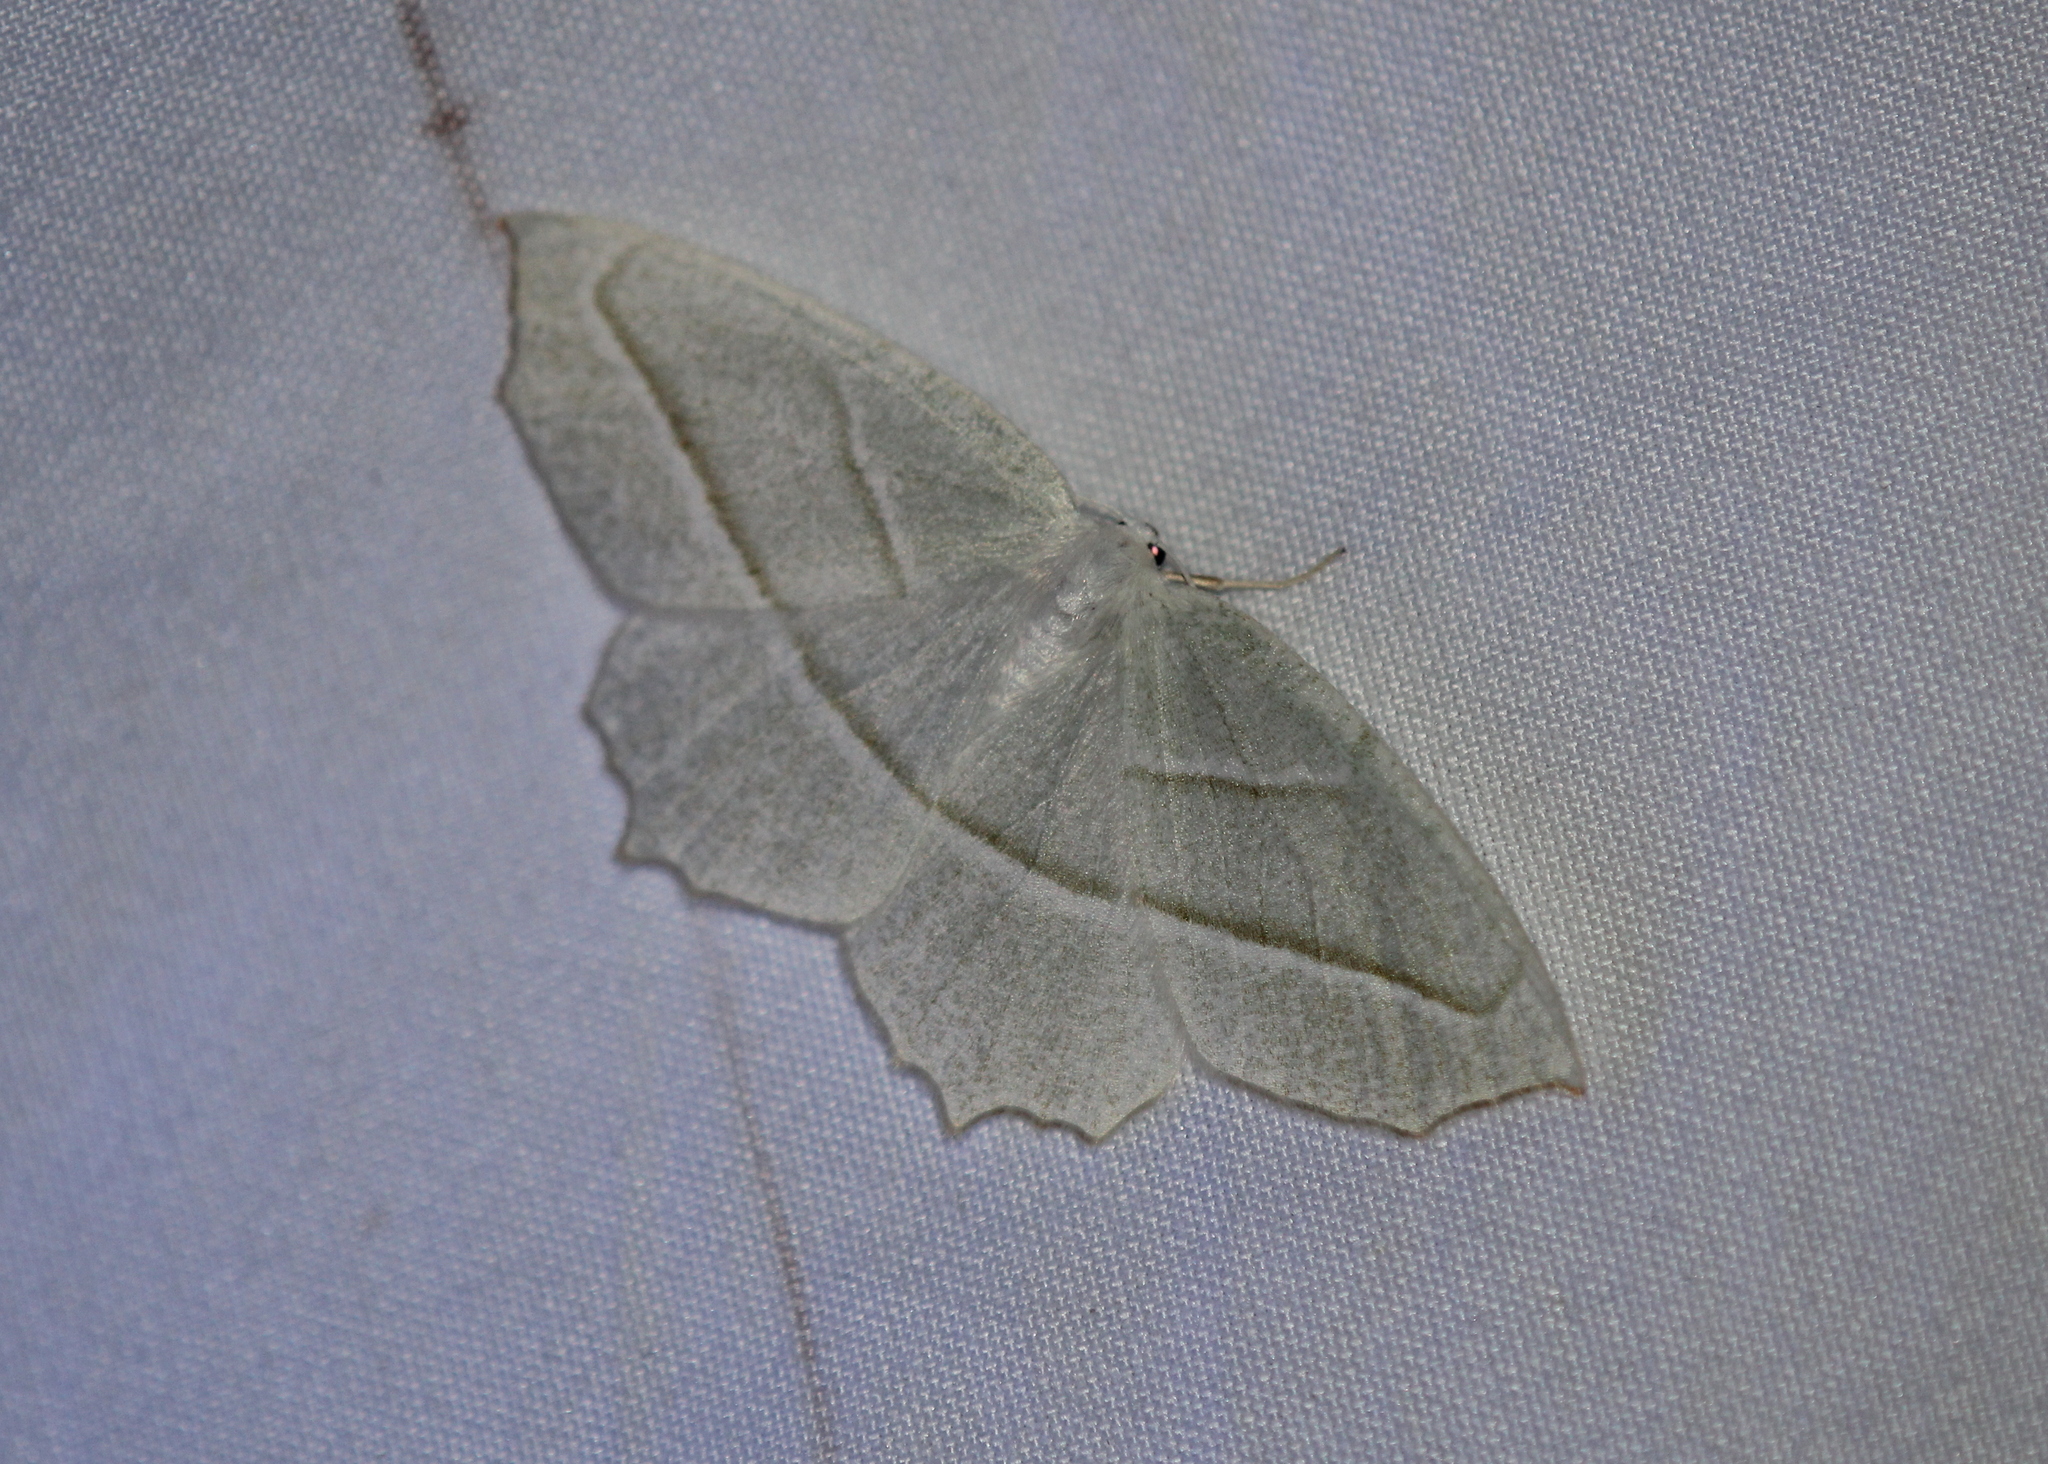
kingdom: Animalia
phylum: Arthropoda
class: Insecta
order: Lepidoptera
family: Geometridae
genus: Campaea
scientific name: Campaea perlata
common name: Fringed looper
